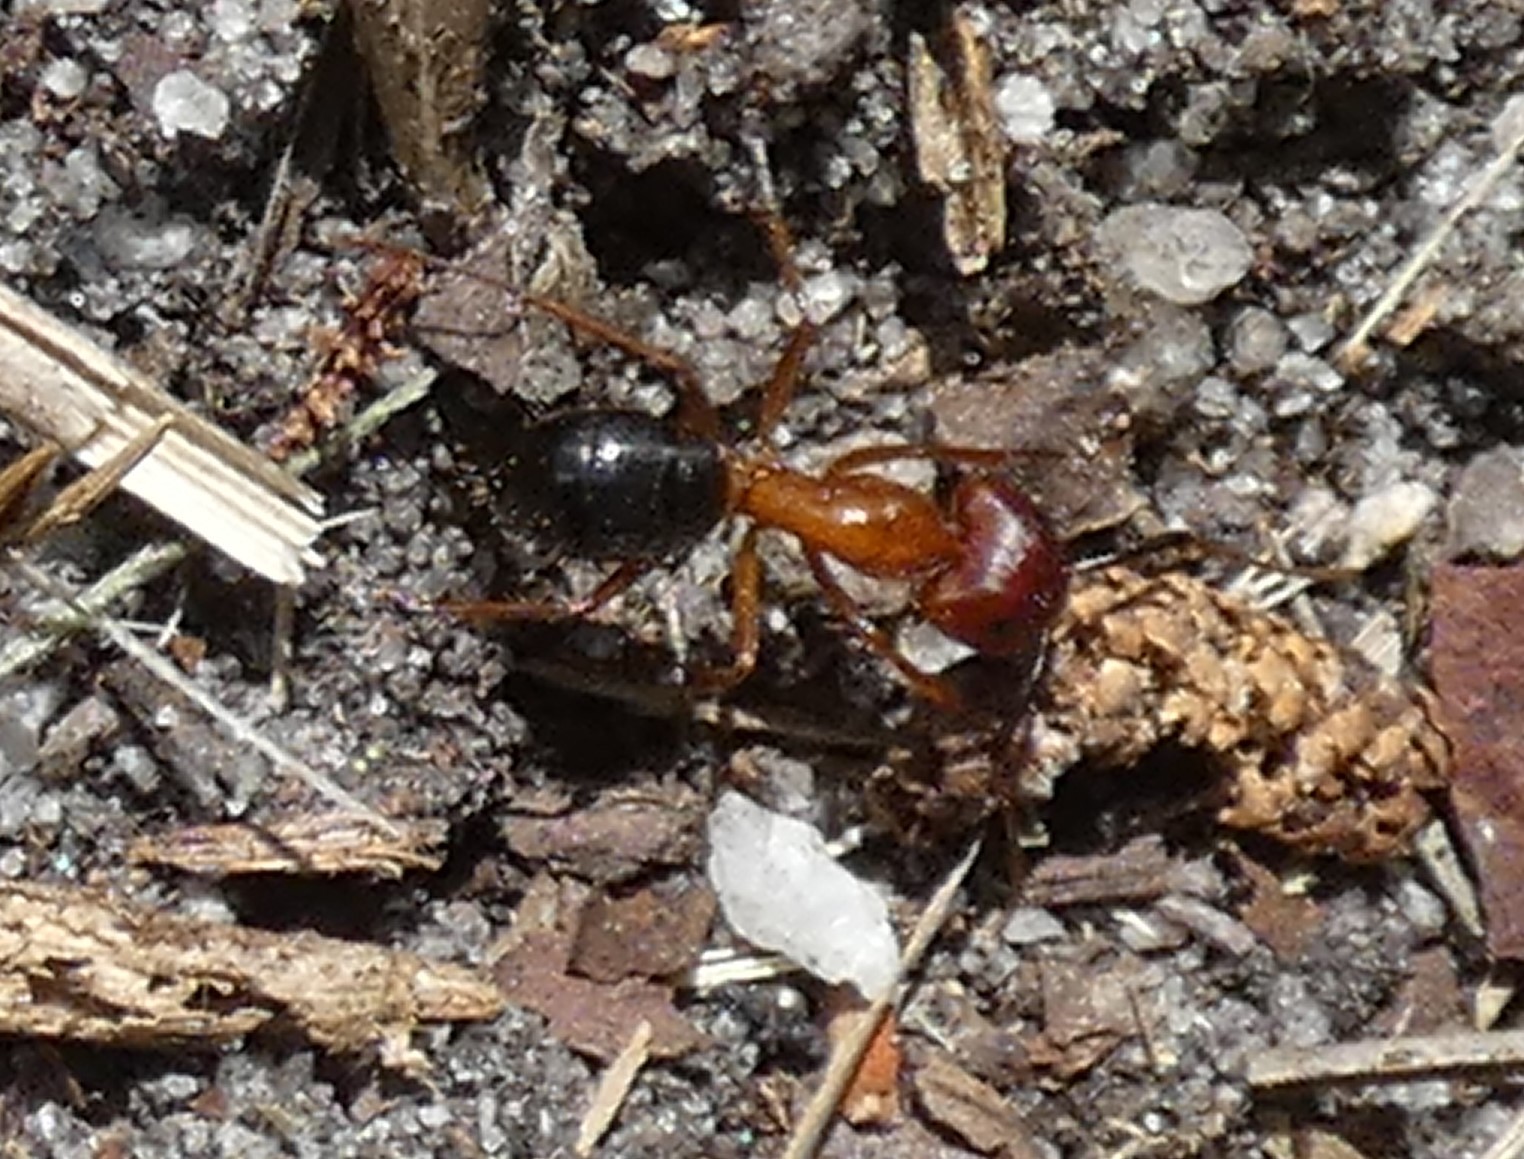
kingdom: Animalia
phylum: Arthropoda
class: Insecta
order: Hymenoptera
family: Formicidae
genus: Camponotus
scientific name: Camponotus floridanus
